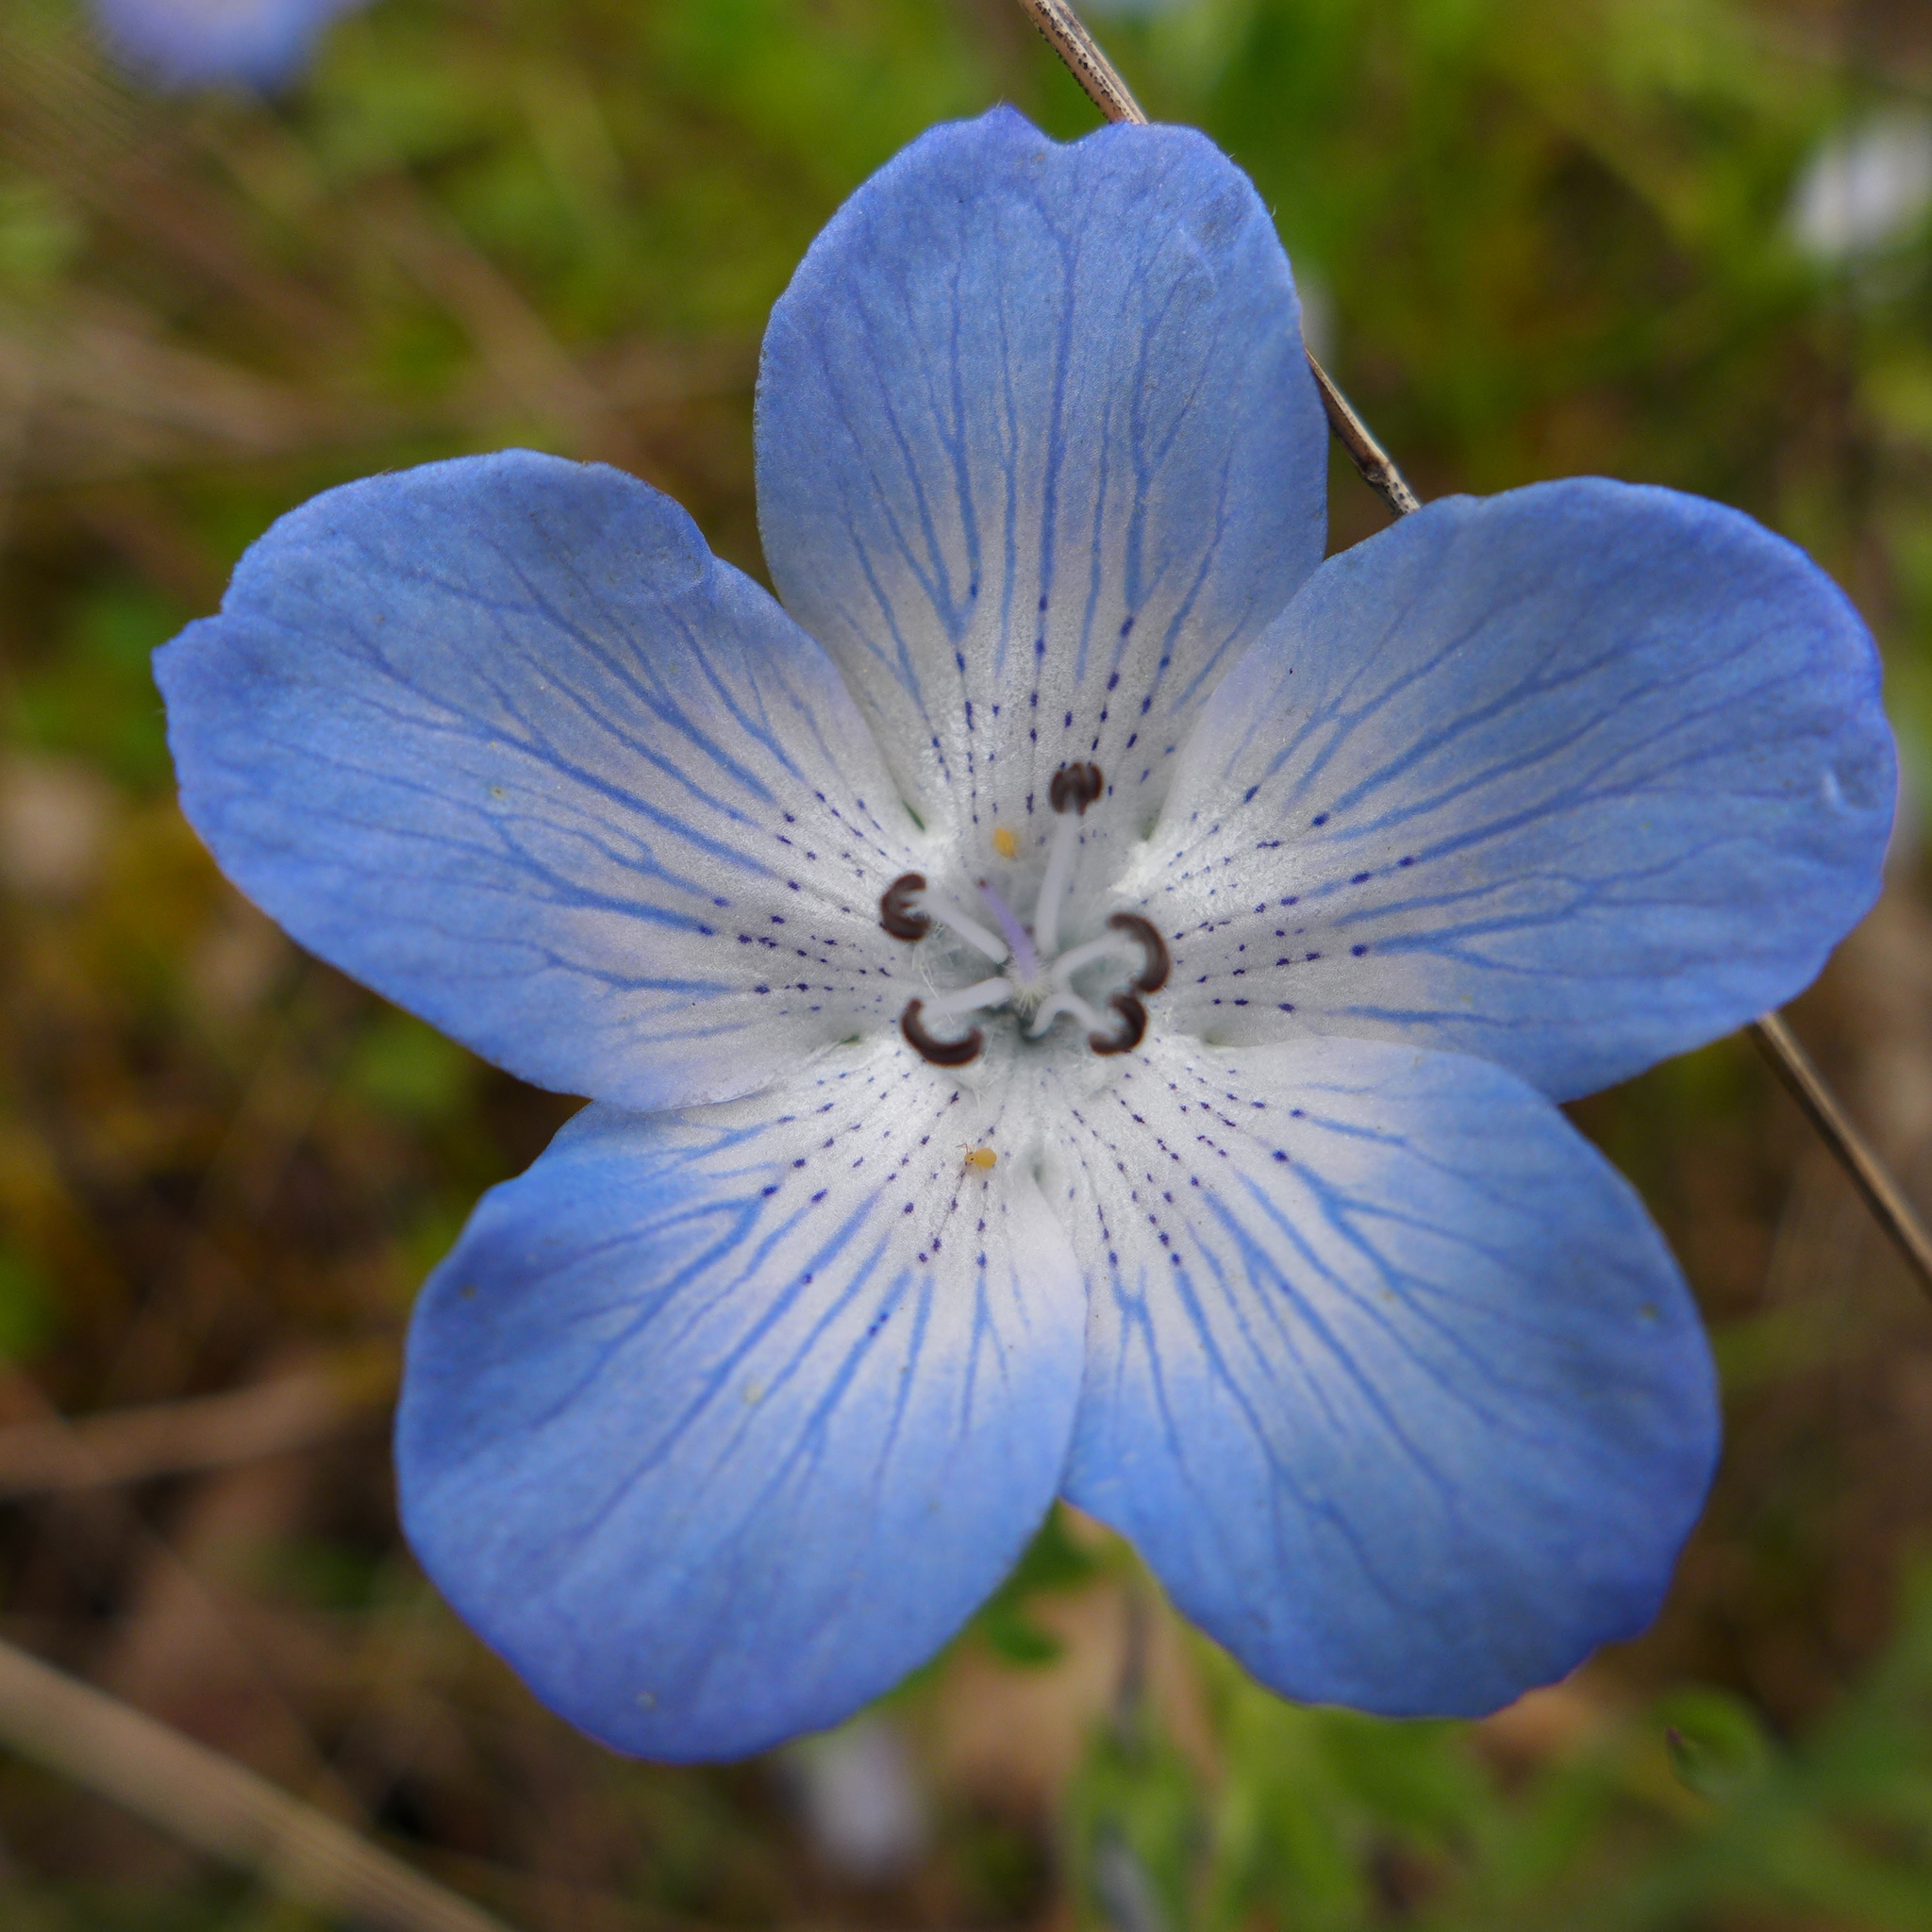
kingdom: Plantae
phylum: Tracheophyta
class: Magnoliopsida
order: Boraginales
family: Hydrophyllaceae
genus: Nemophila
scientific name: Nemophila menziesii
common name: Baby's-blue-eyes
